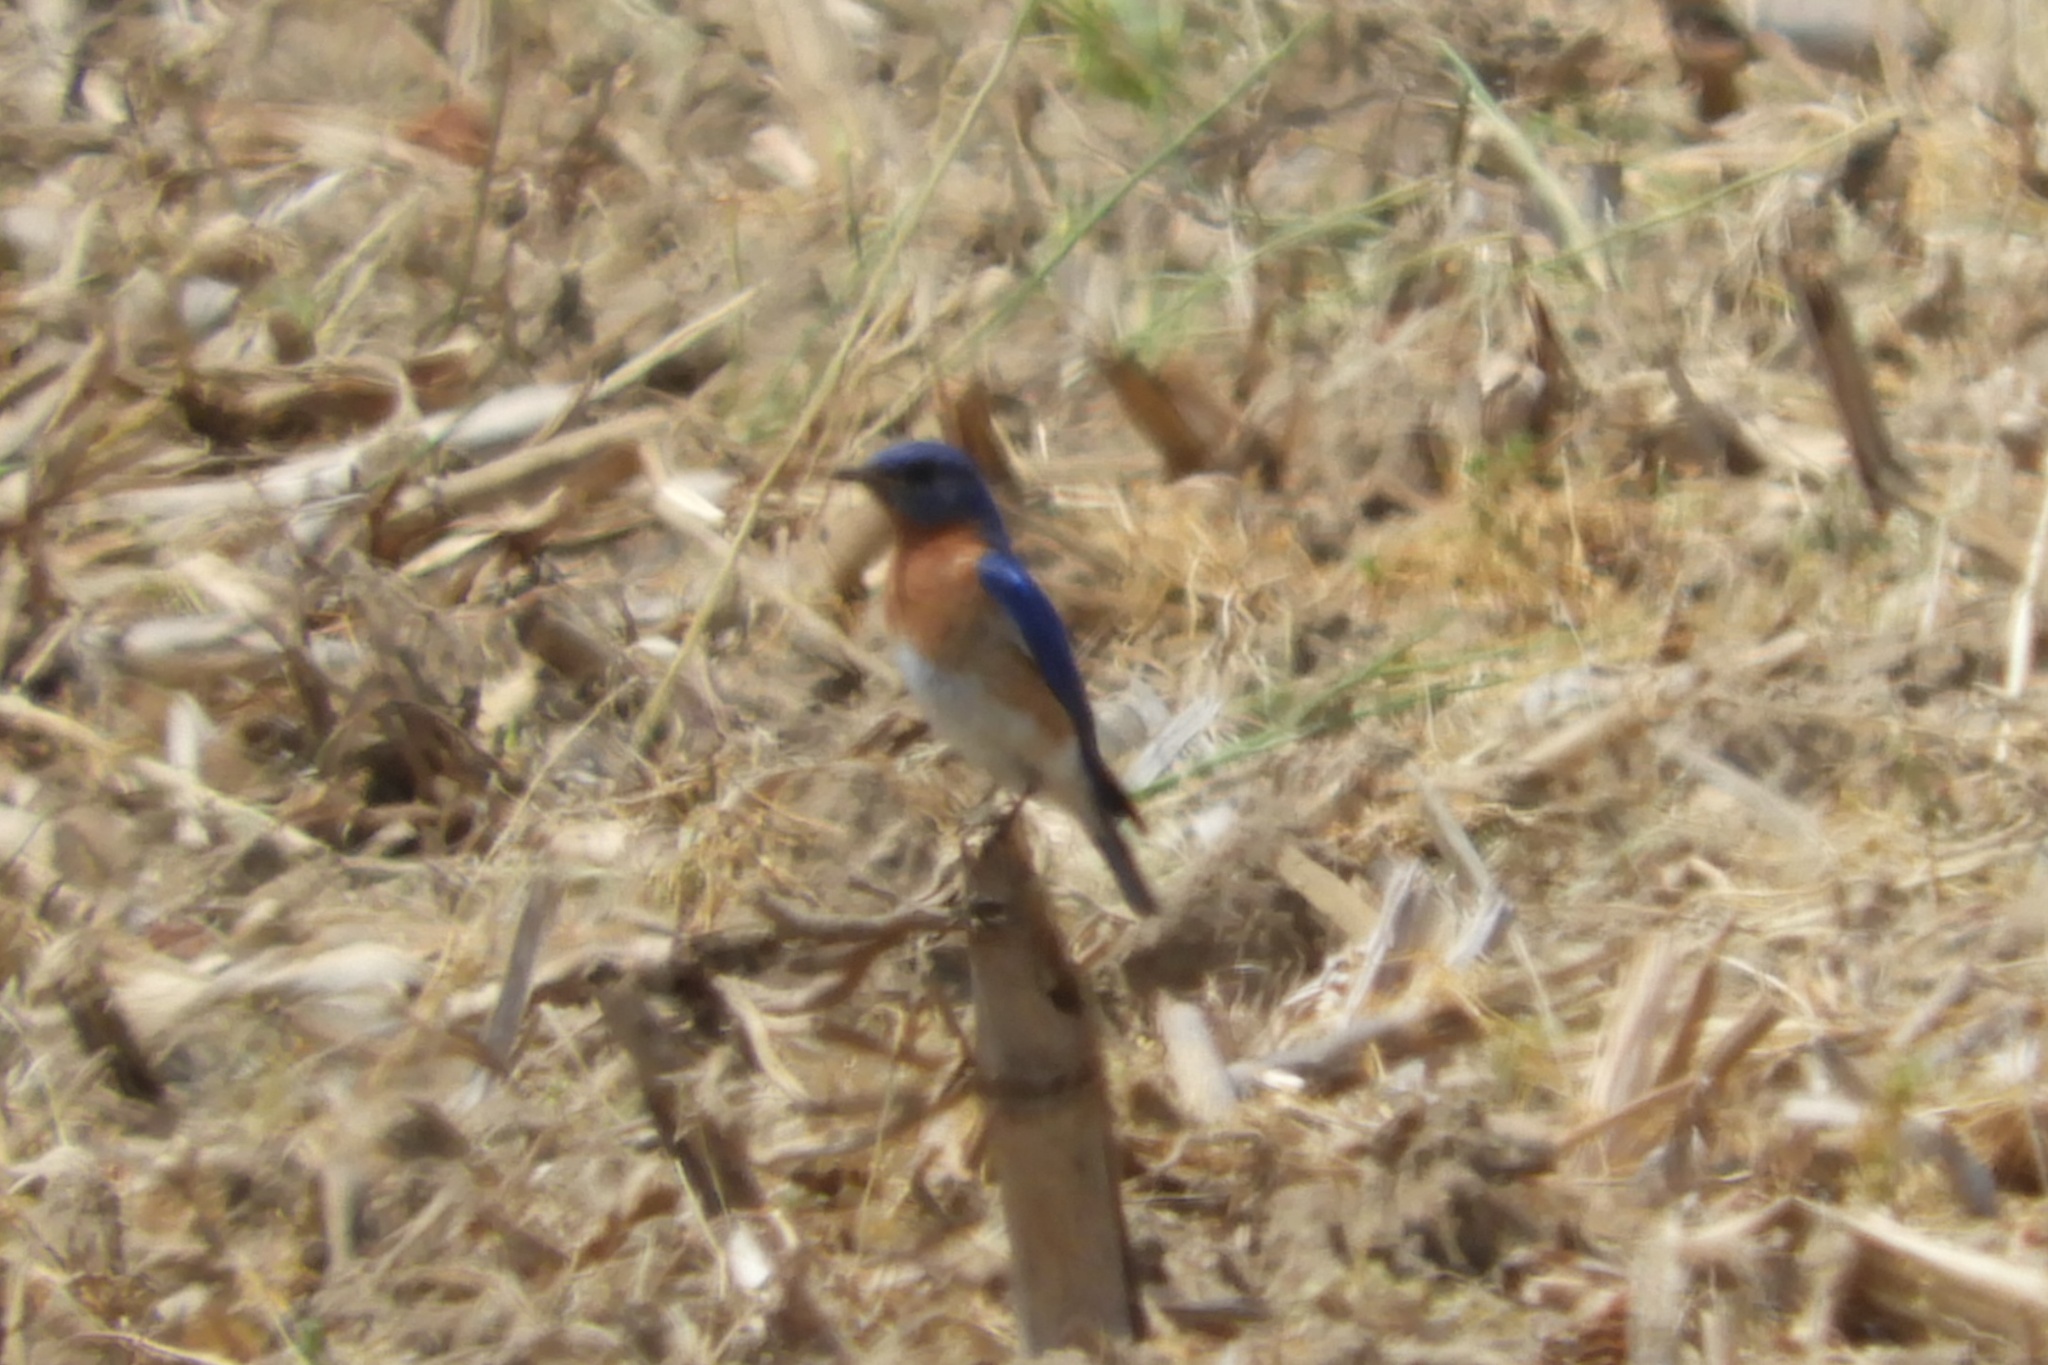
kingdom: Animalia
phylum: Chordata
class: Aves
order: Passeriformes
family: Turdidae
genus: Sialia
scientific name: Sialia sialis
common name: Eastern bluebird
